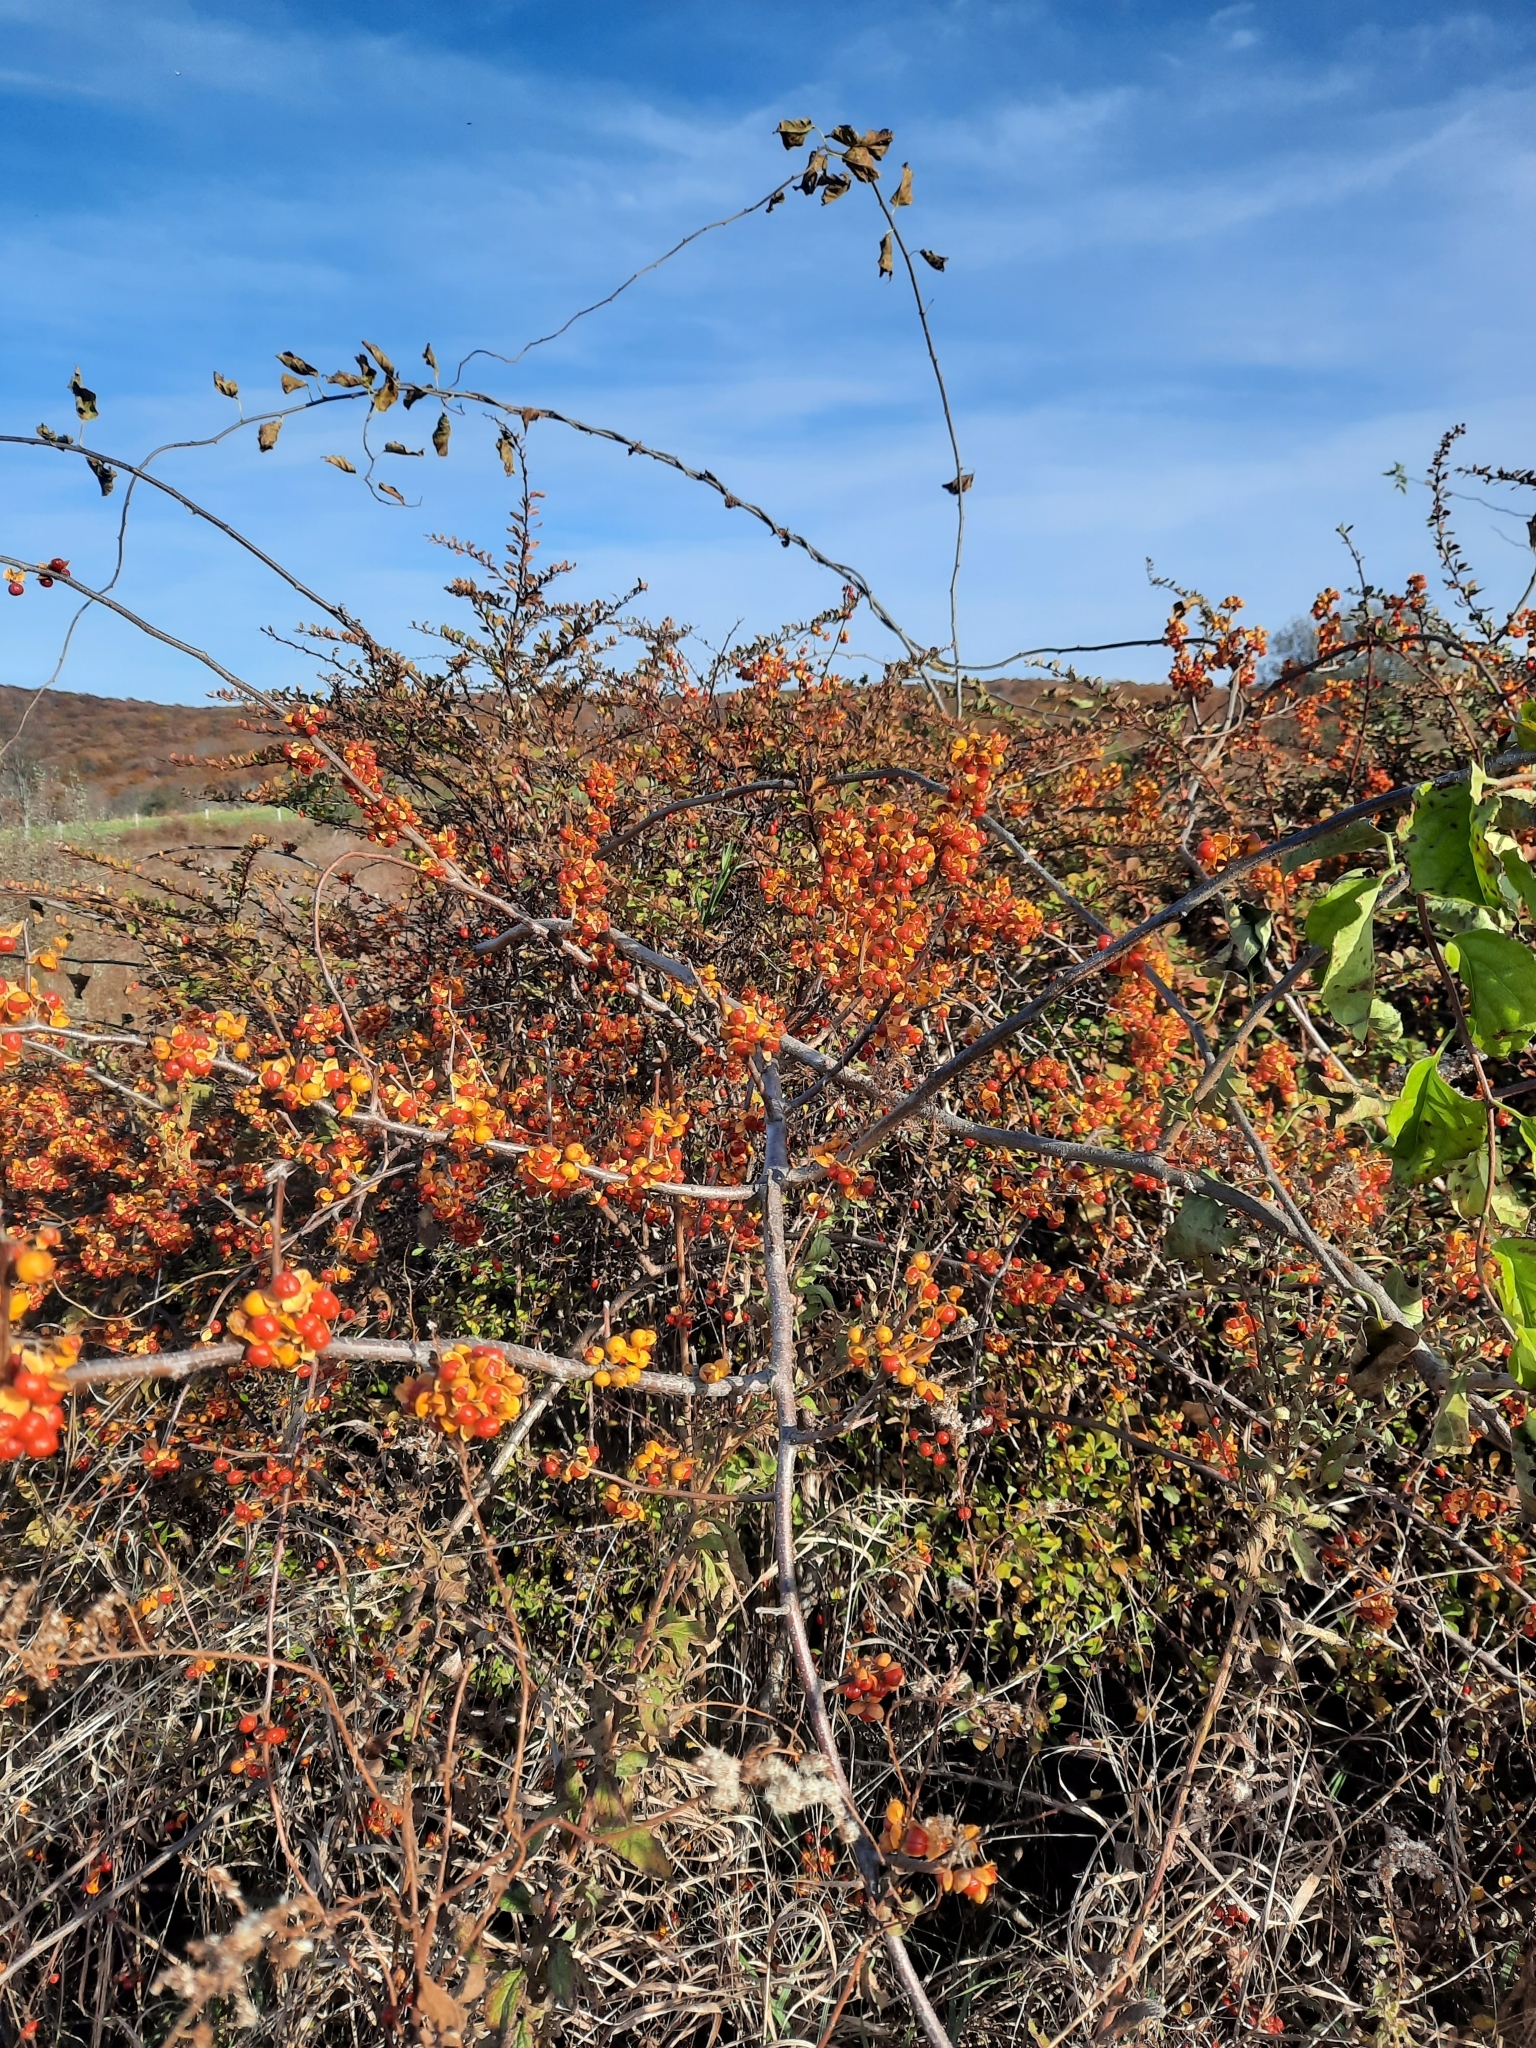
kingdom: Plantae
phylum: Tracheophyta
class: Magnoliopsida
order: Celastrales
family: Celastraceae
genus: Celastrus
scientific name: Celastrus orbiculatus
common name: Oriental bittersweet
